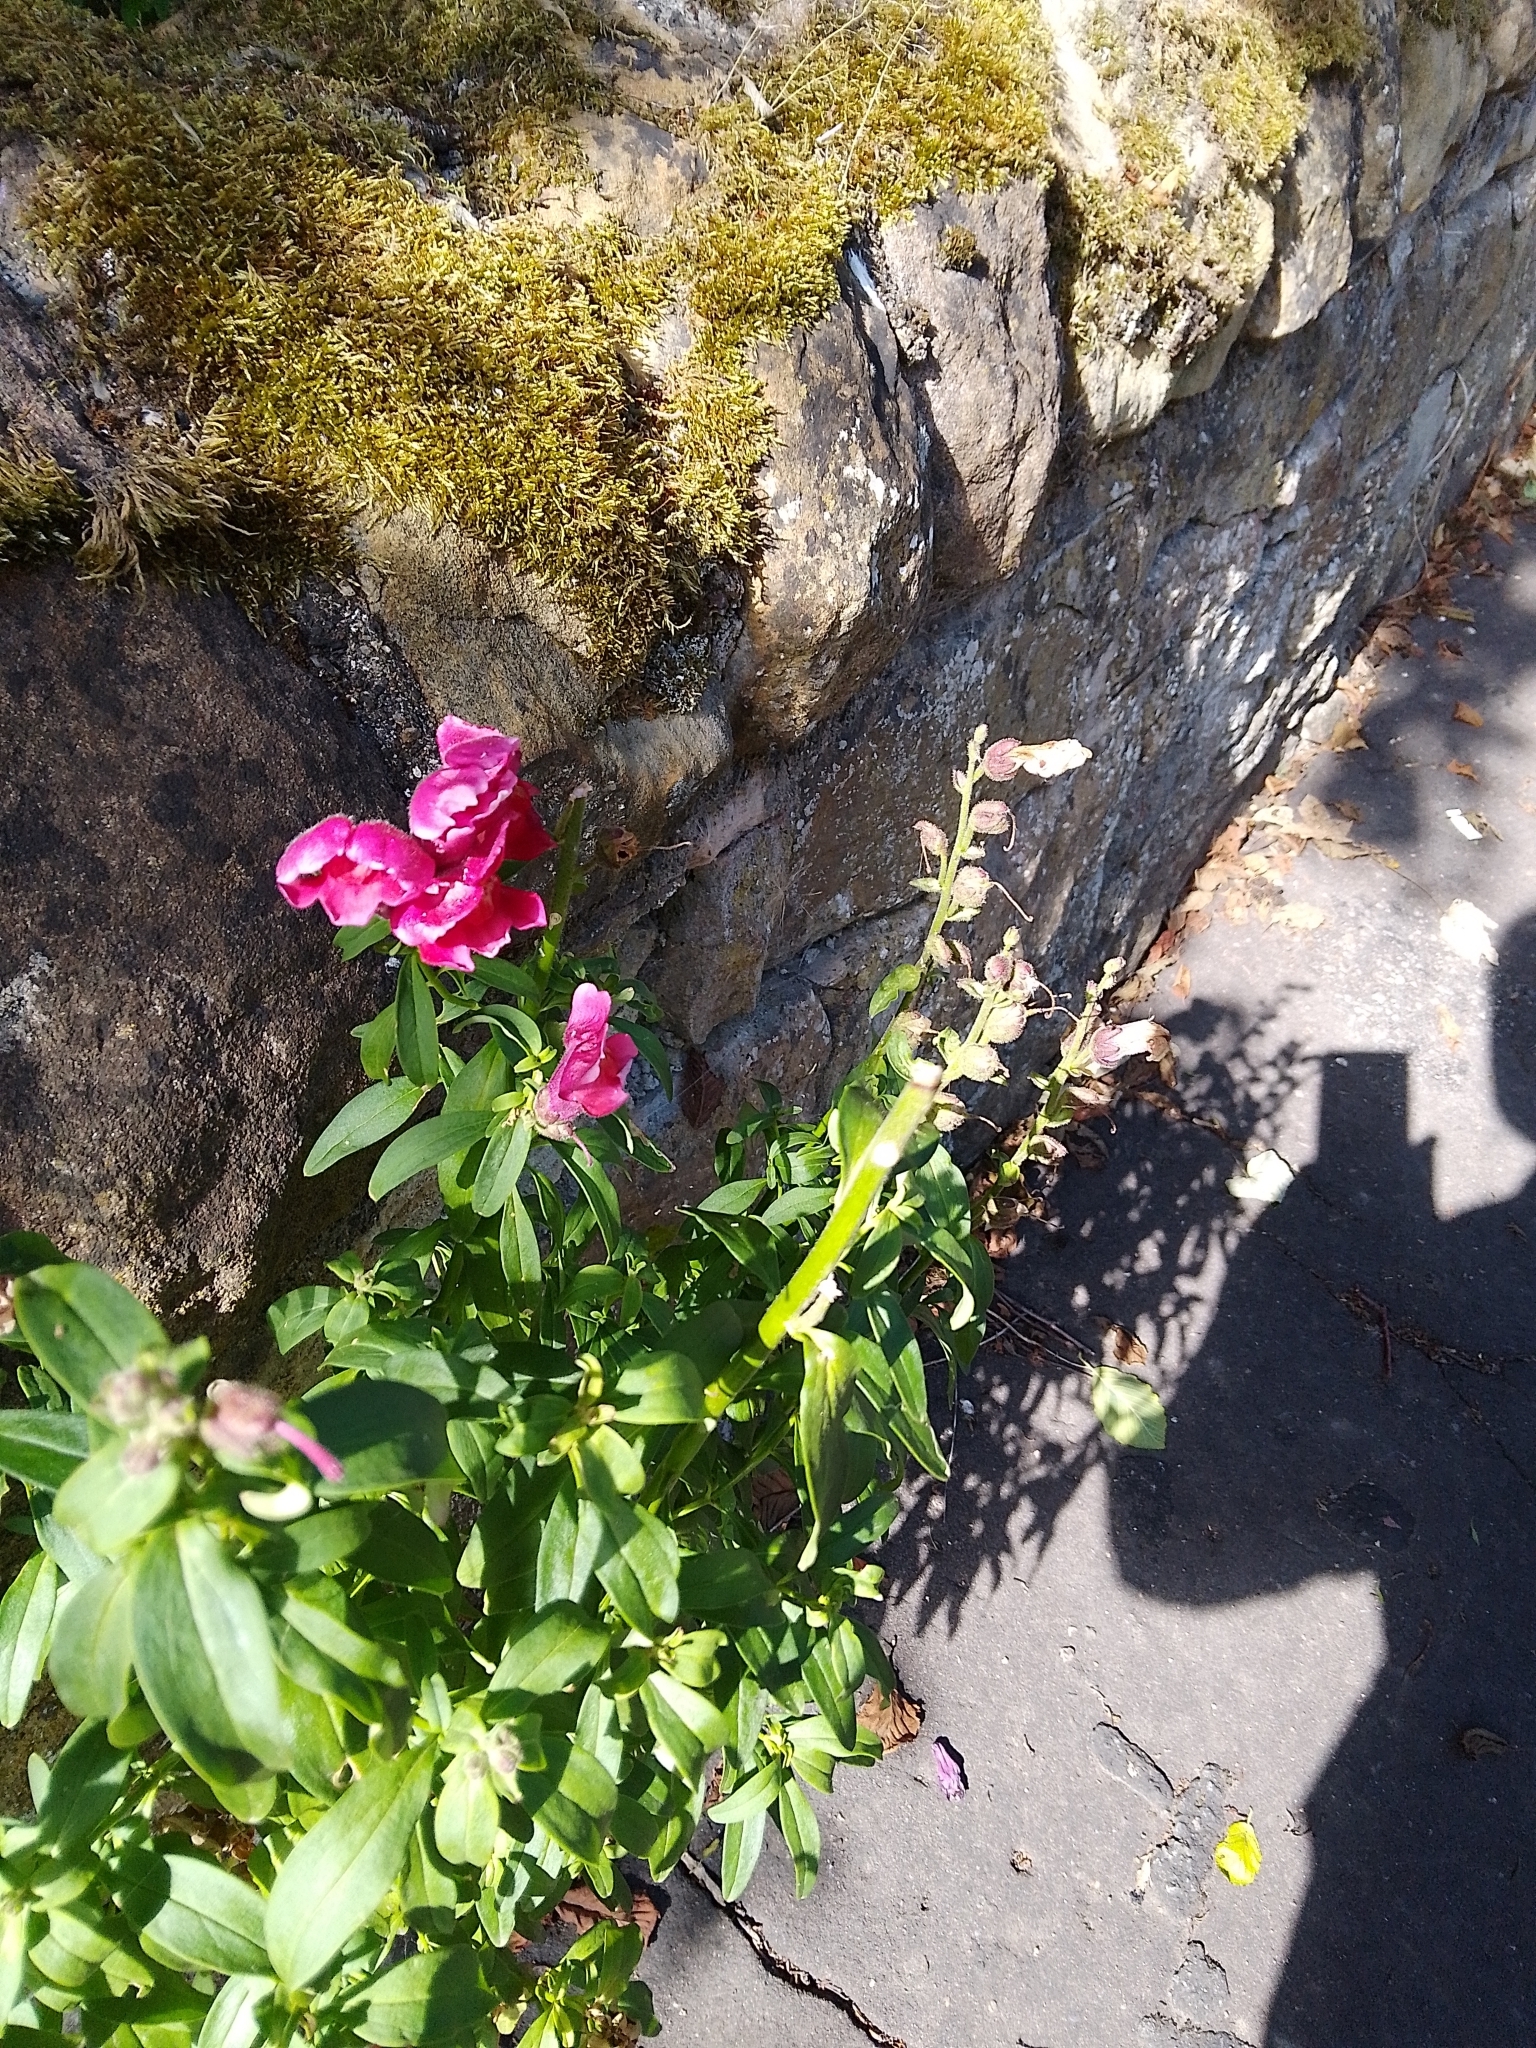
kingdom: Plantae
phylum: Tracheophyta
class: Magnoliopsida
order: Lamiales
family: Plantaginaceae
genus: Antirrhinum
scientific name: Antirrhinum majus
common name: Snapdragon
